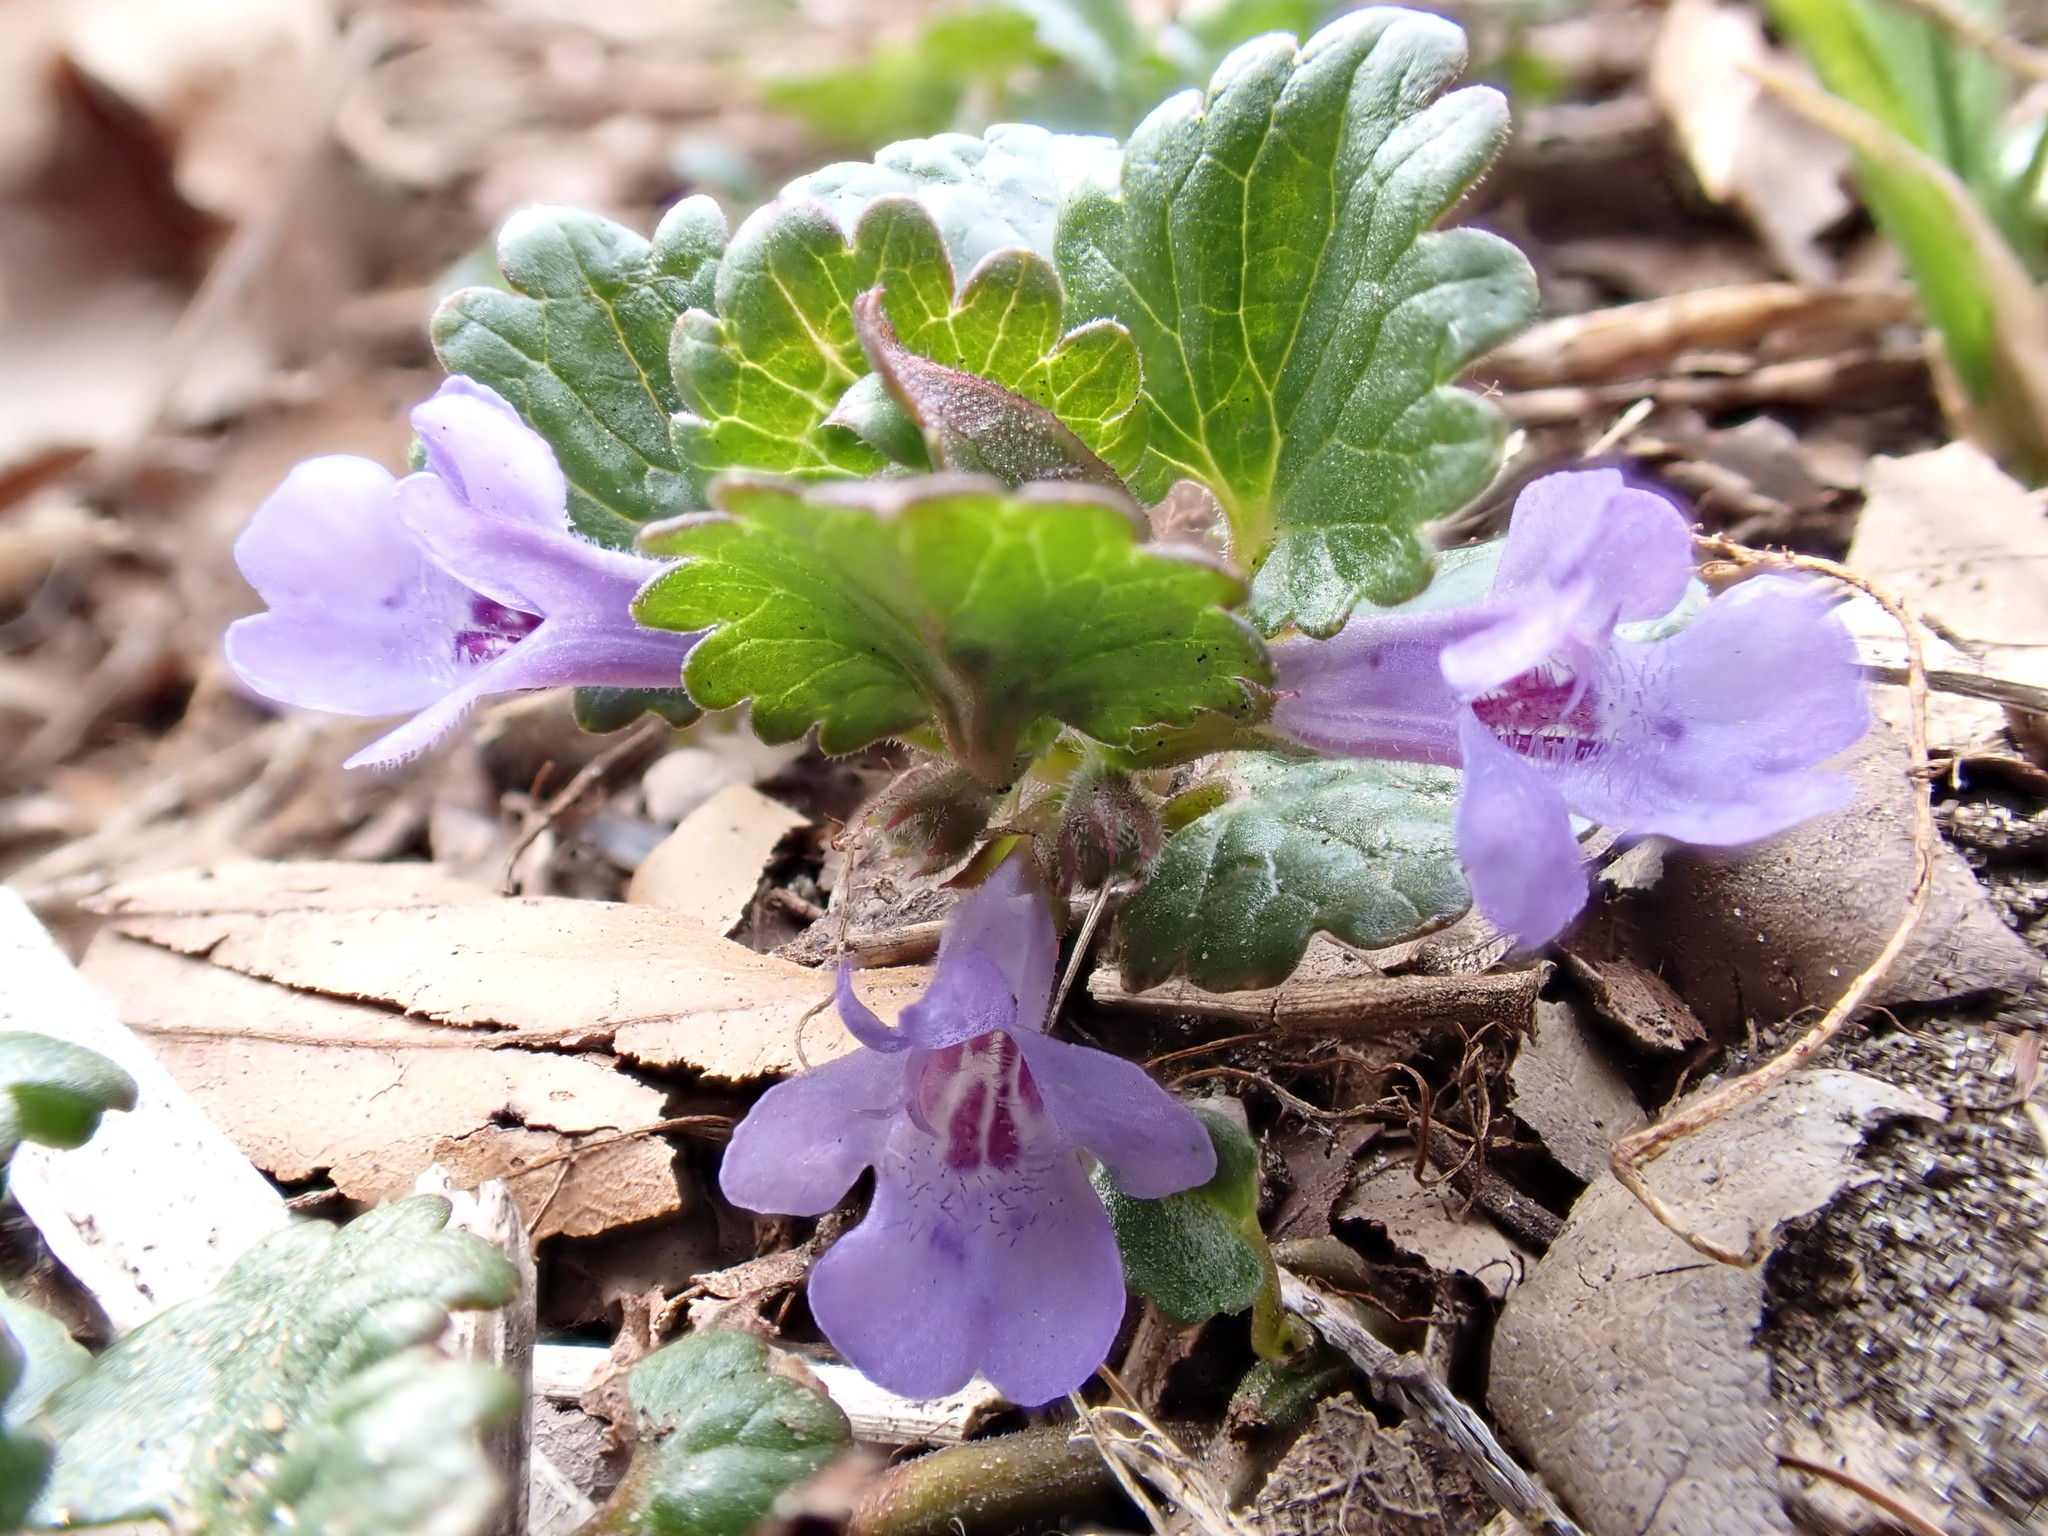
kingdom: Plantae
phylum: Tracheophyta
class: Magnoliopsida
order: Lamiales
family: Lamiaceae
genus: Glechoma
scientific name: Glechoma hederacea
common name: Ground ivy
